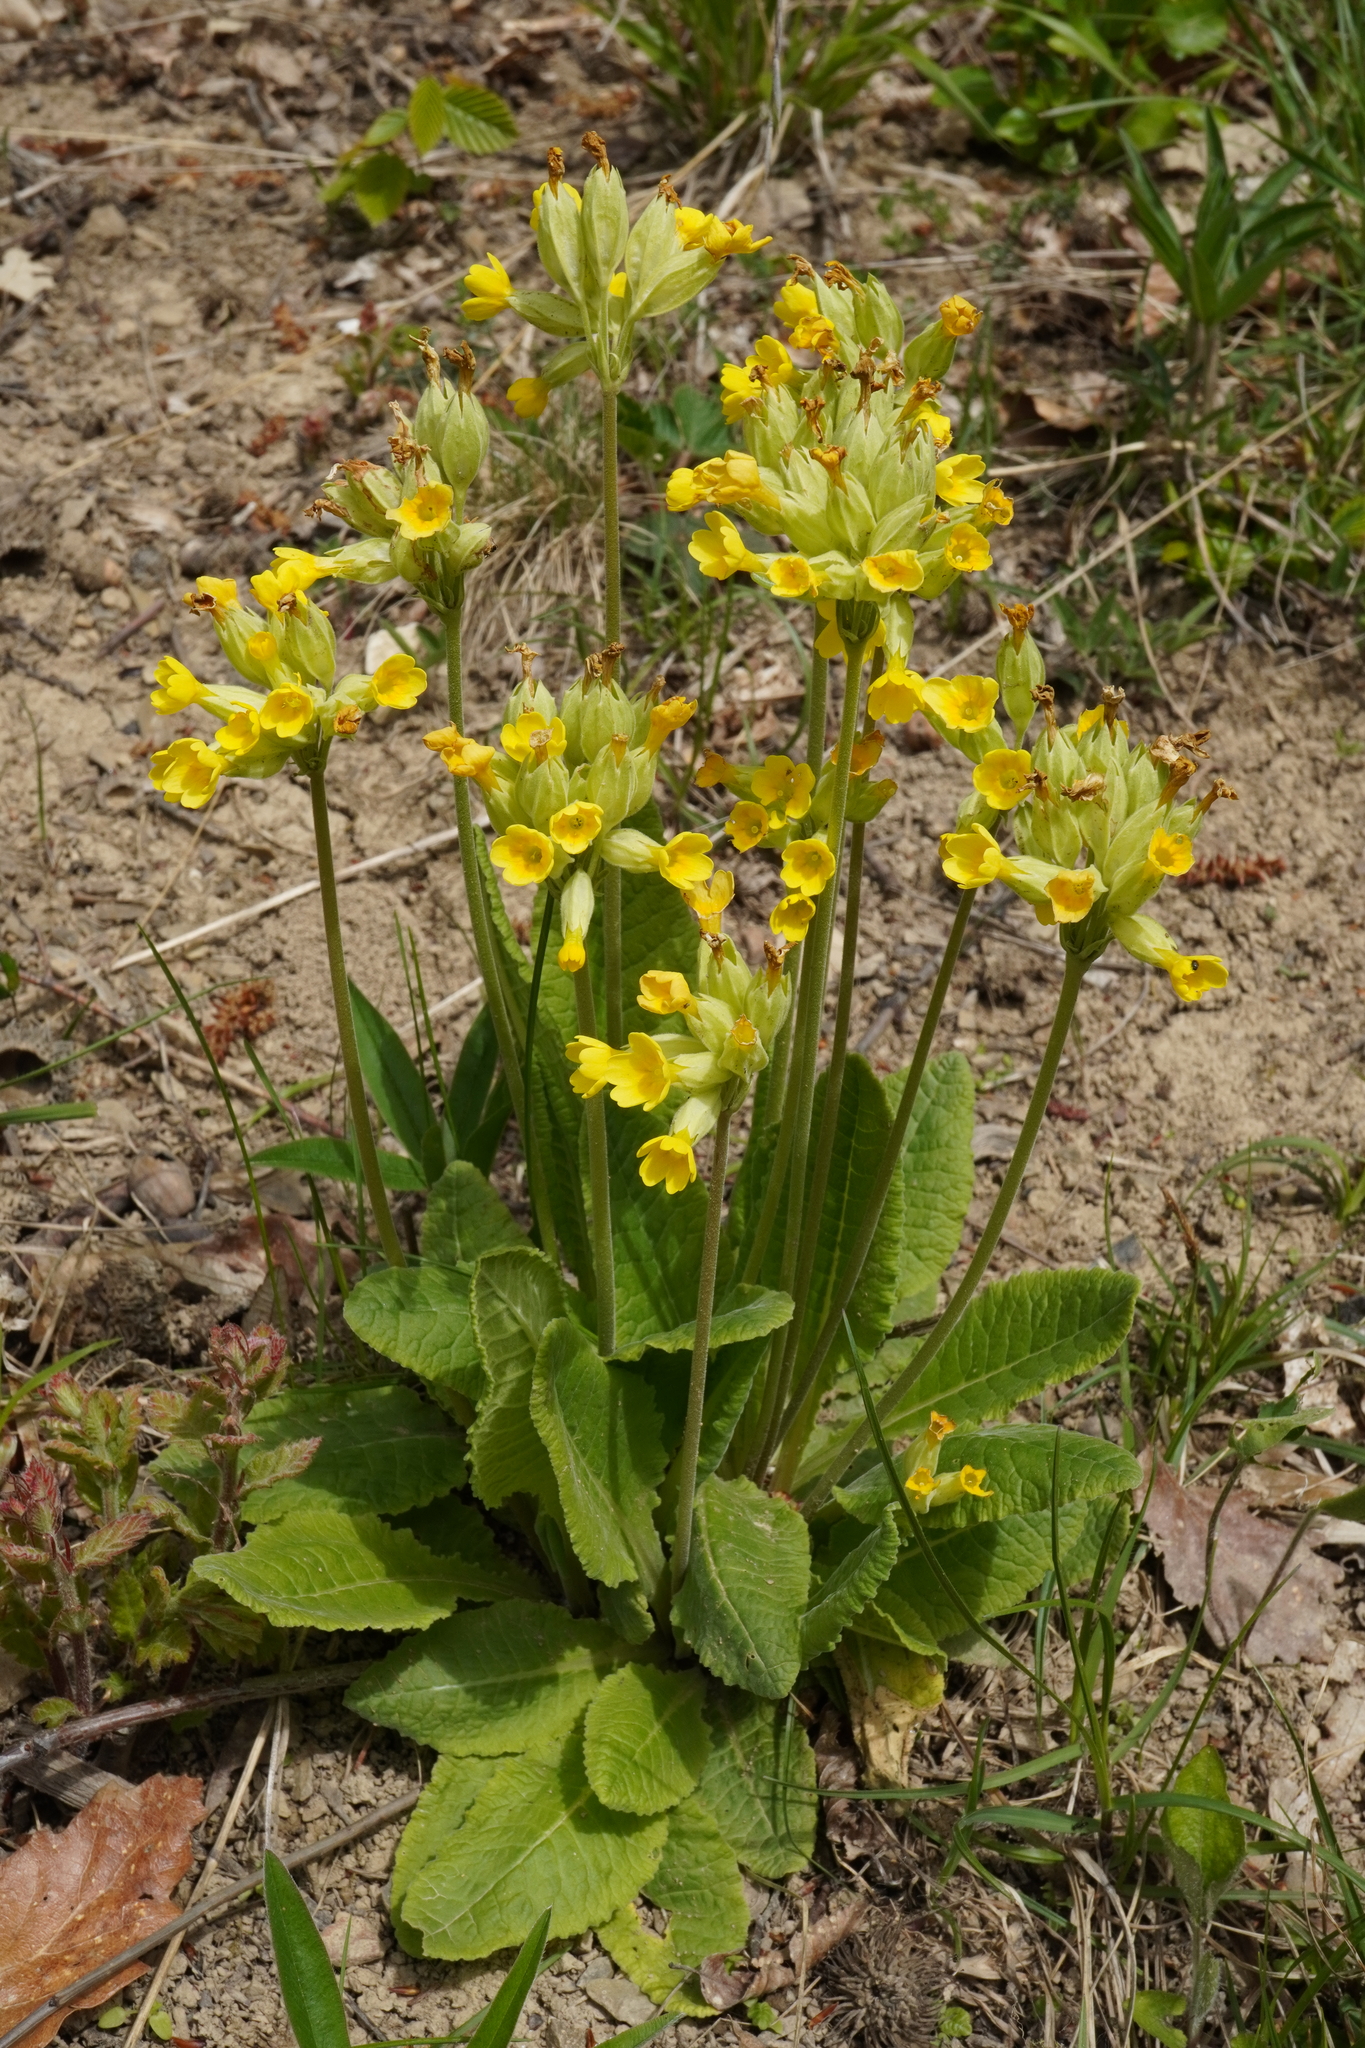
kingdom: Plantae
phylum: Tracheophyta
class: Magnoliopsida
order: Ericales
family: Primulaceae
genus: Primula
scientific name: Primula veris
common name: Cowslip
